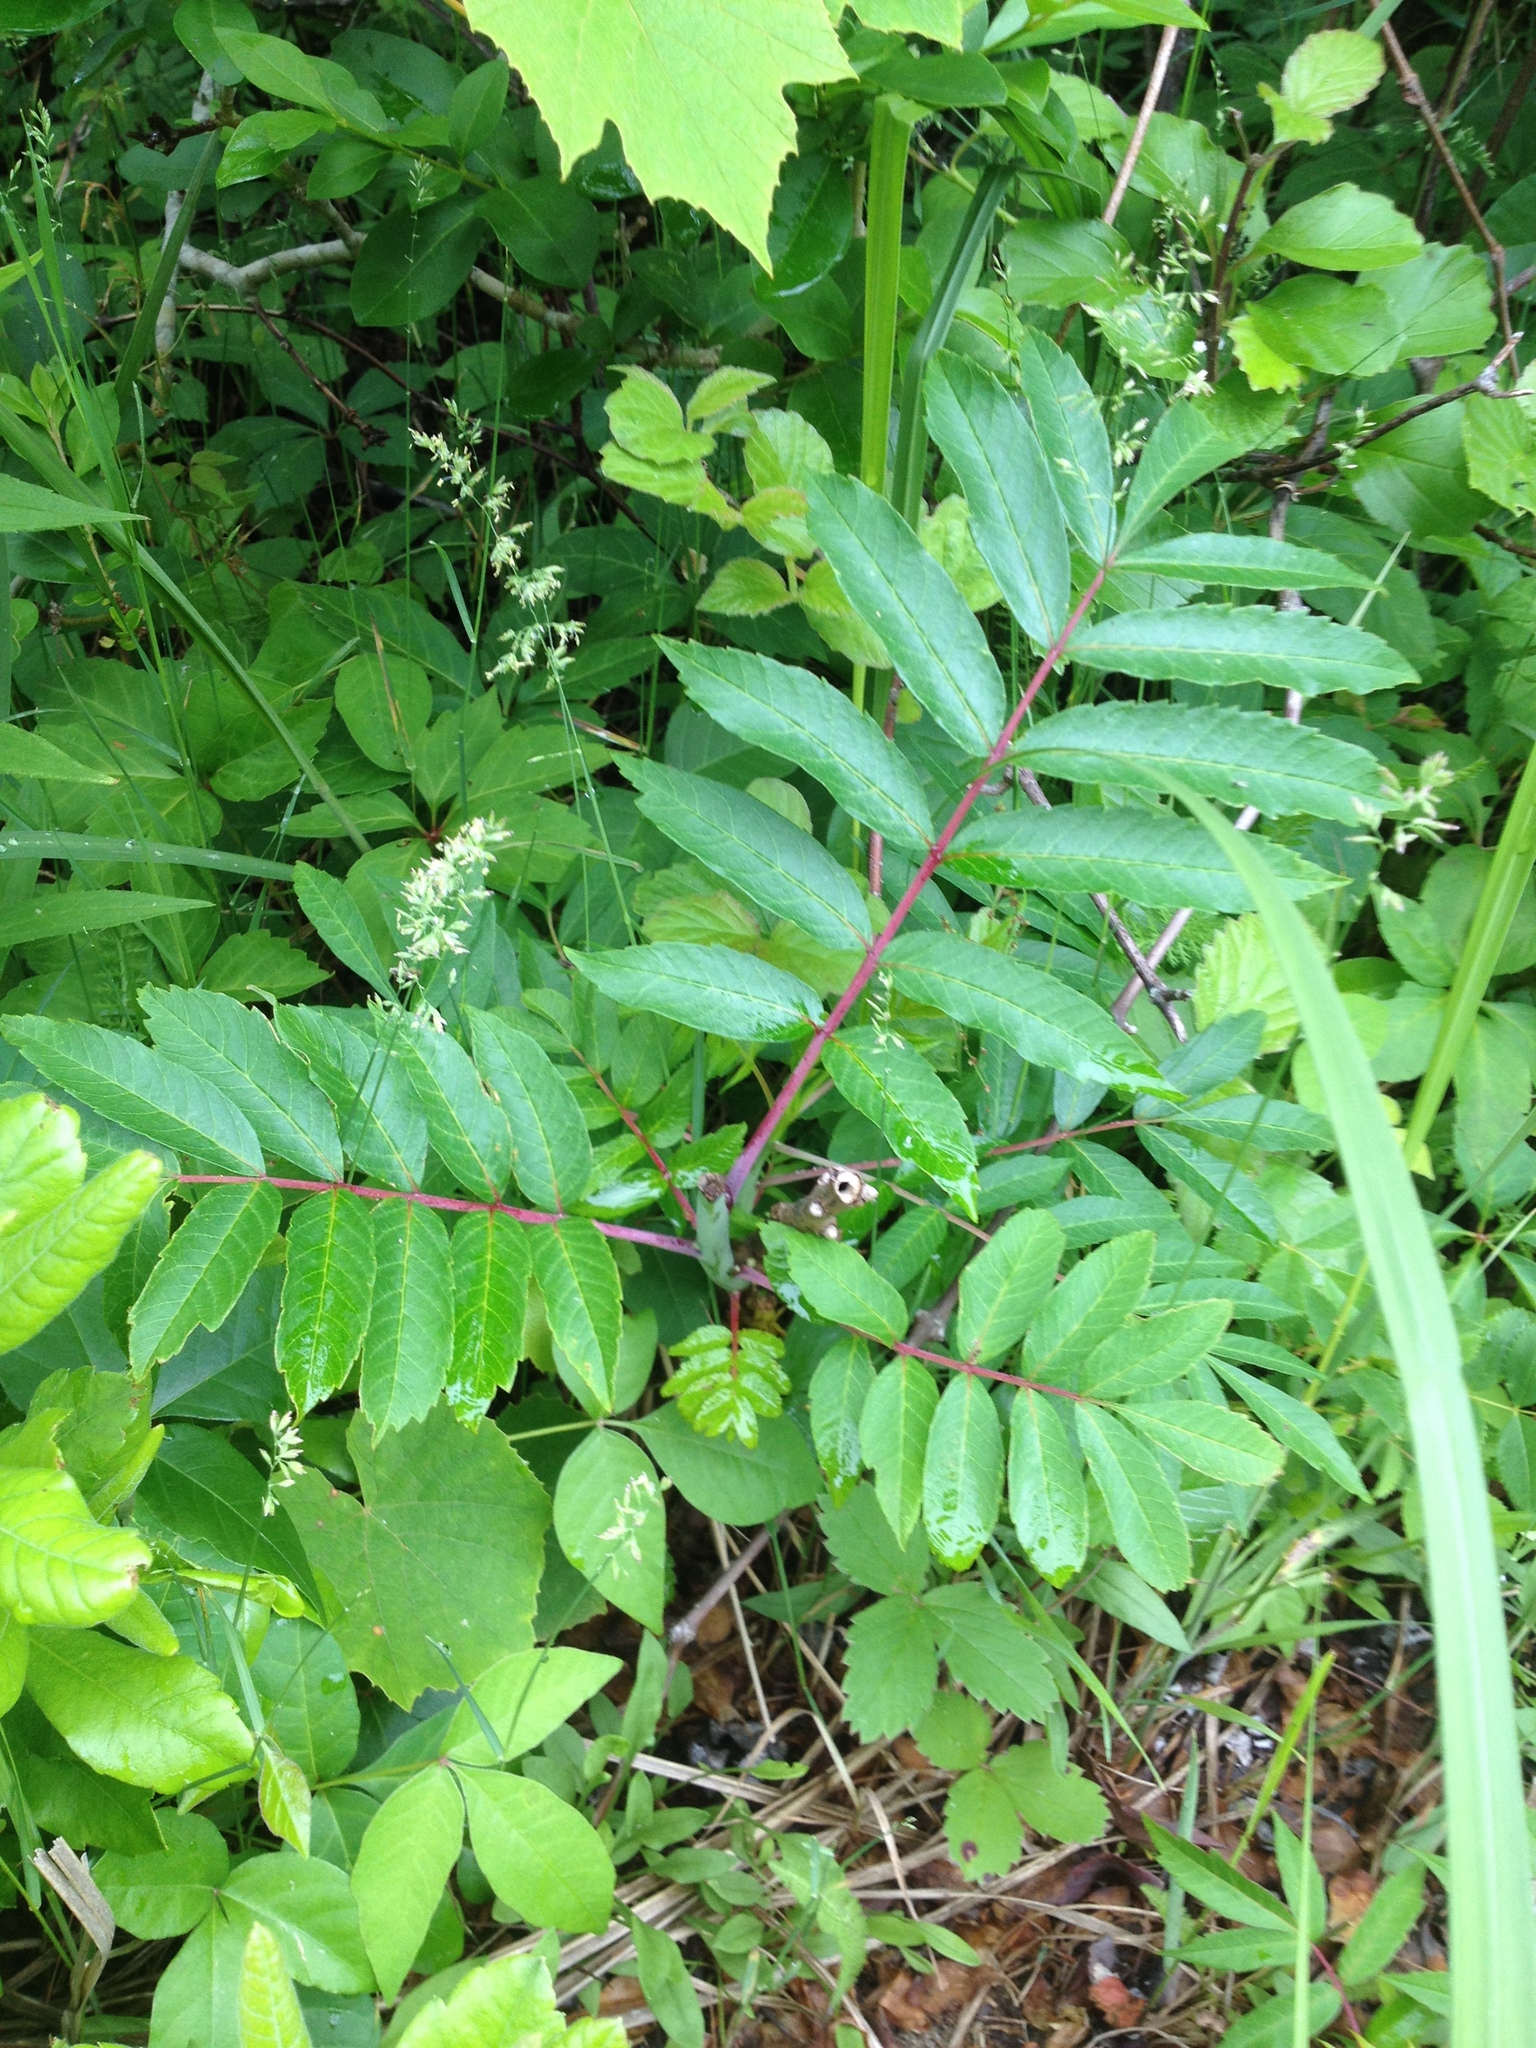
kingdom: Plantae
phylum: Tracheophyta
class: Magnoliopsida
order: Sapindales
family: Anacardiaceae
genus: Rhus
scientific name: Rhus glabra
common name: Scarlet sumac
